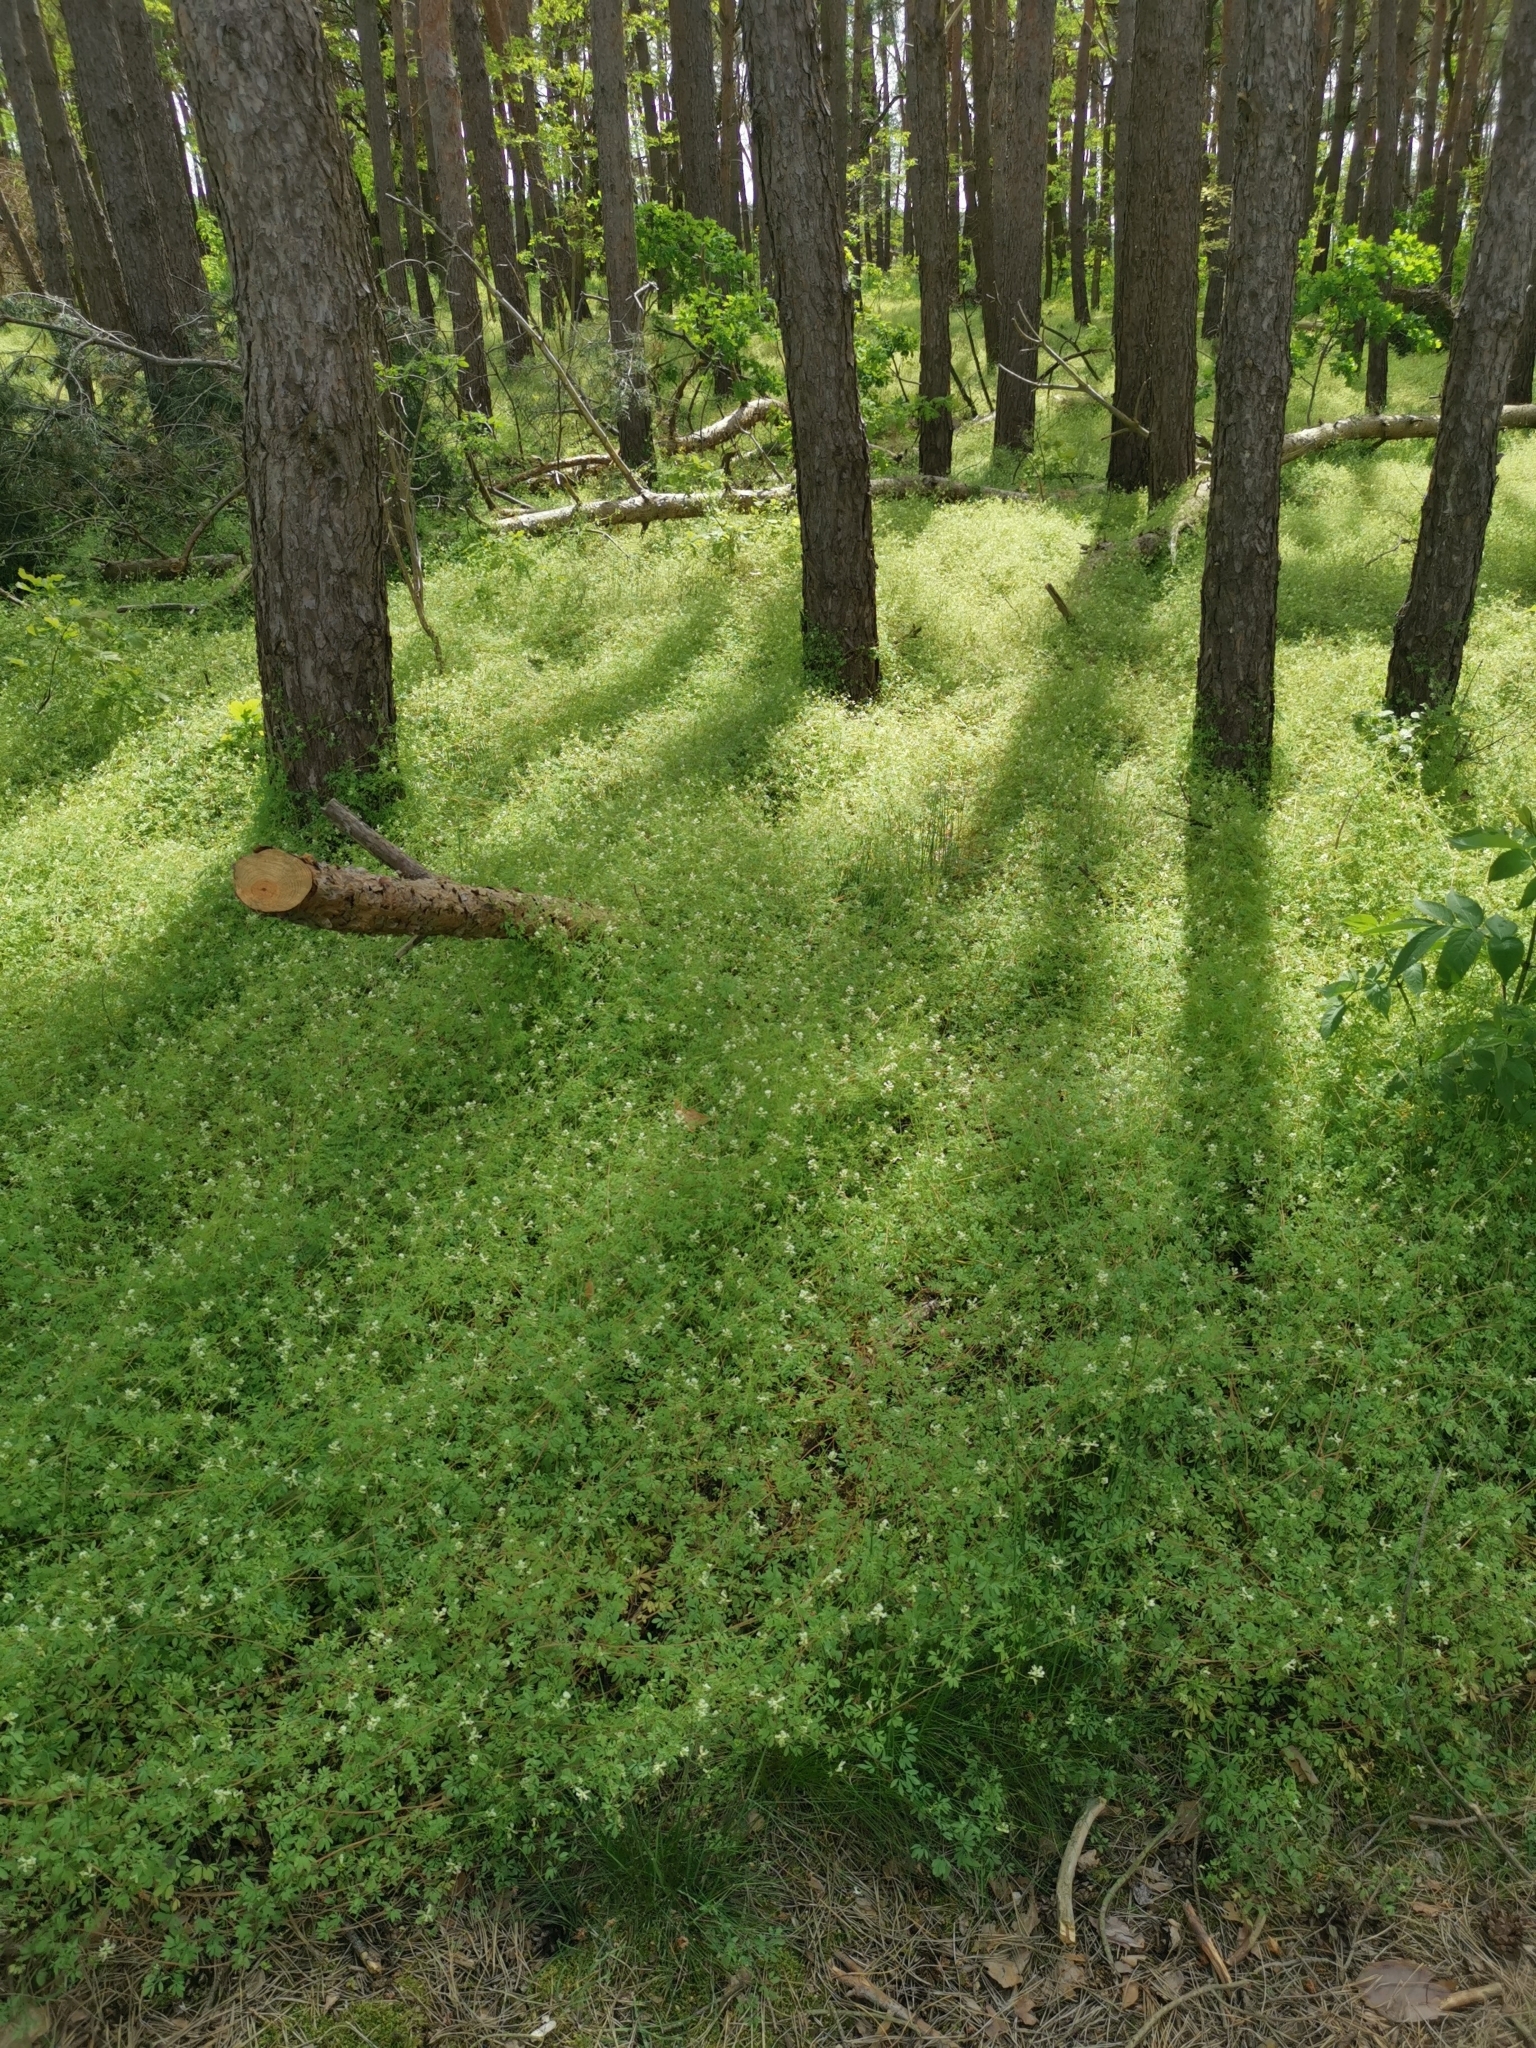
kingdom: Plantae
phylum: Tracheophyta
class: Magnoliopsida
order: Ranunculales
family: Papaveraceae
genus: Ceratocapnos
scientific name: Ceratocapnos claviculata
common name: Climbing corydalis
